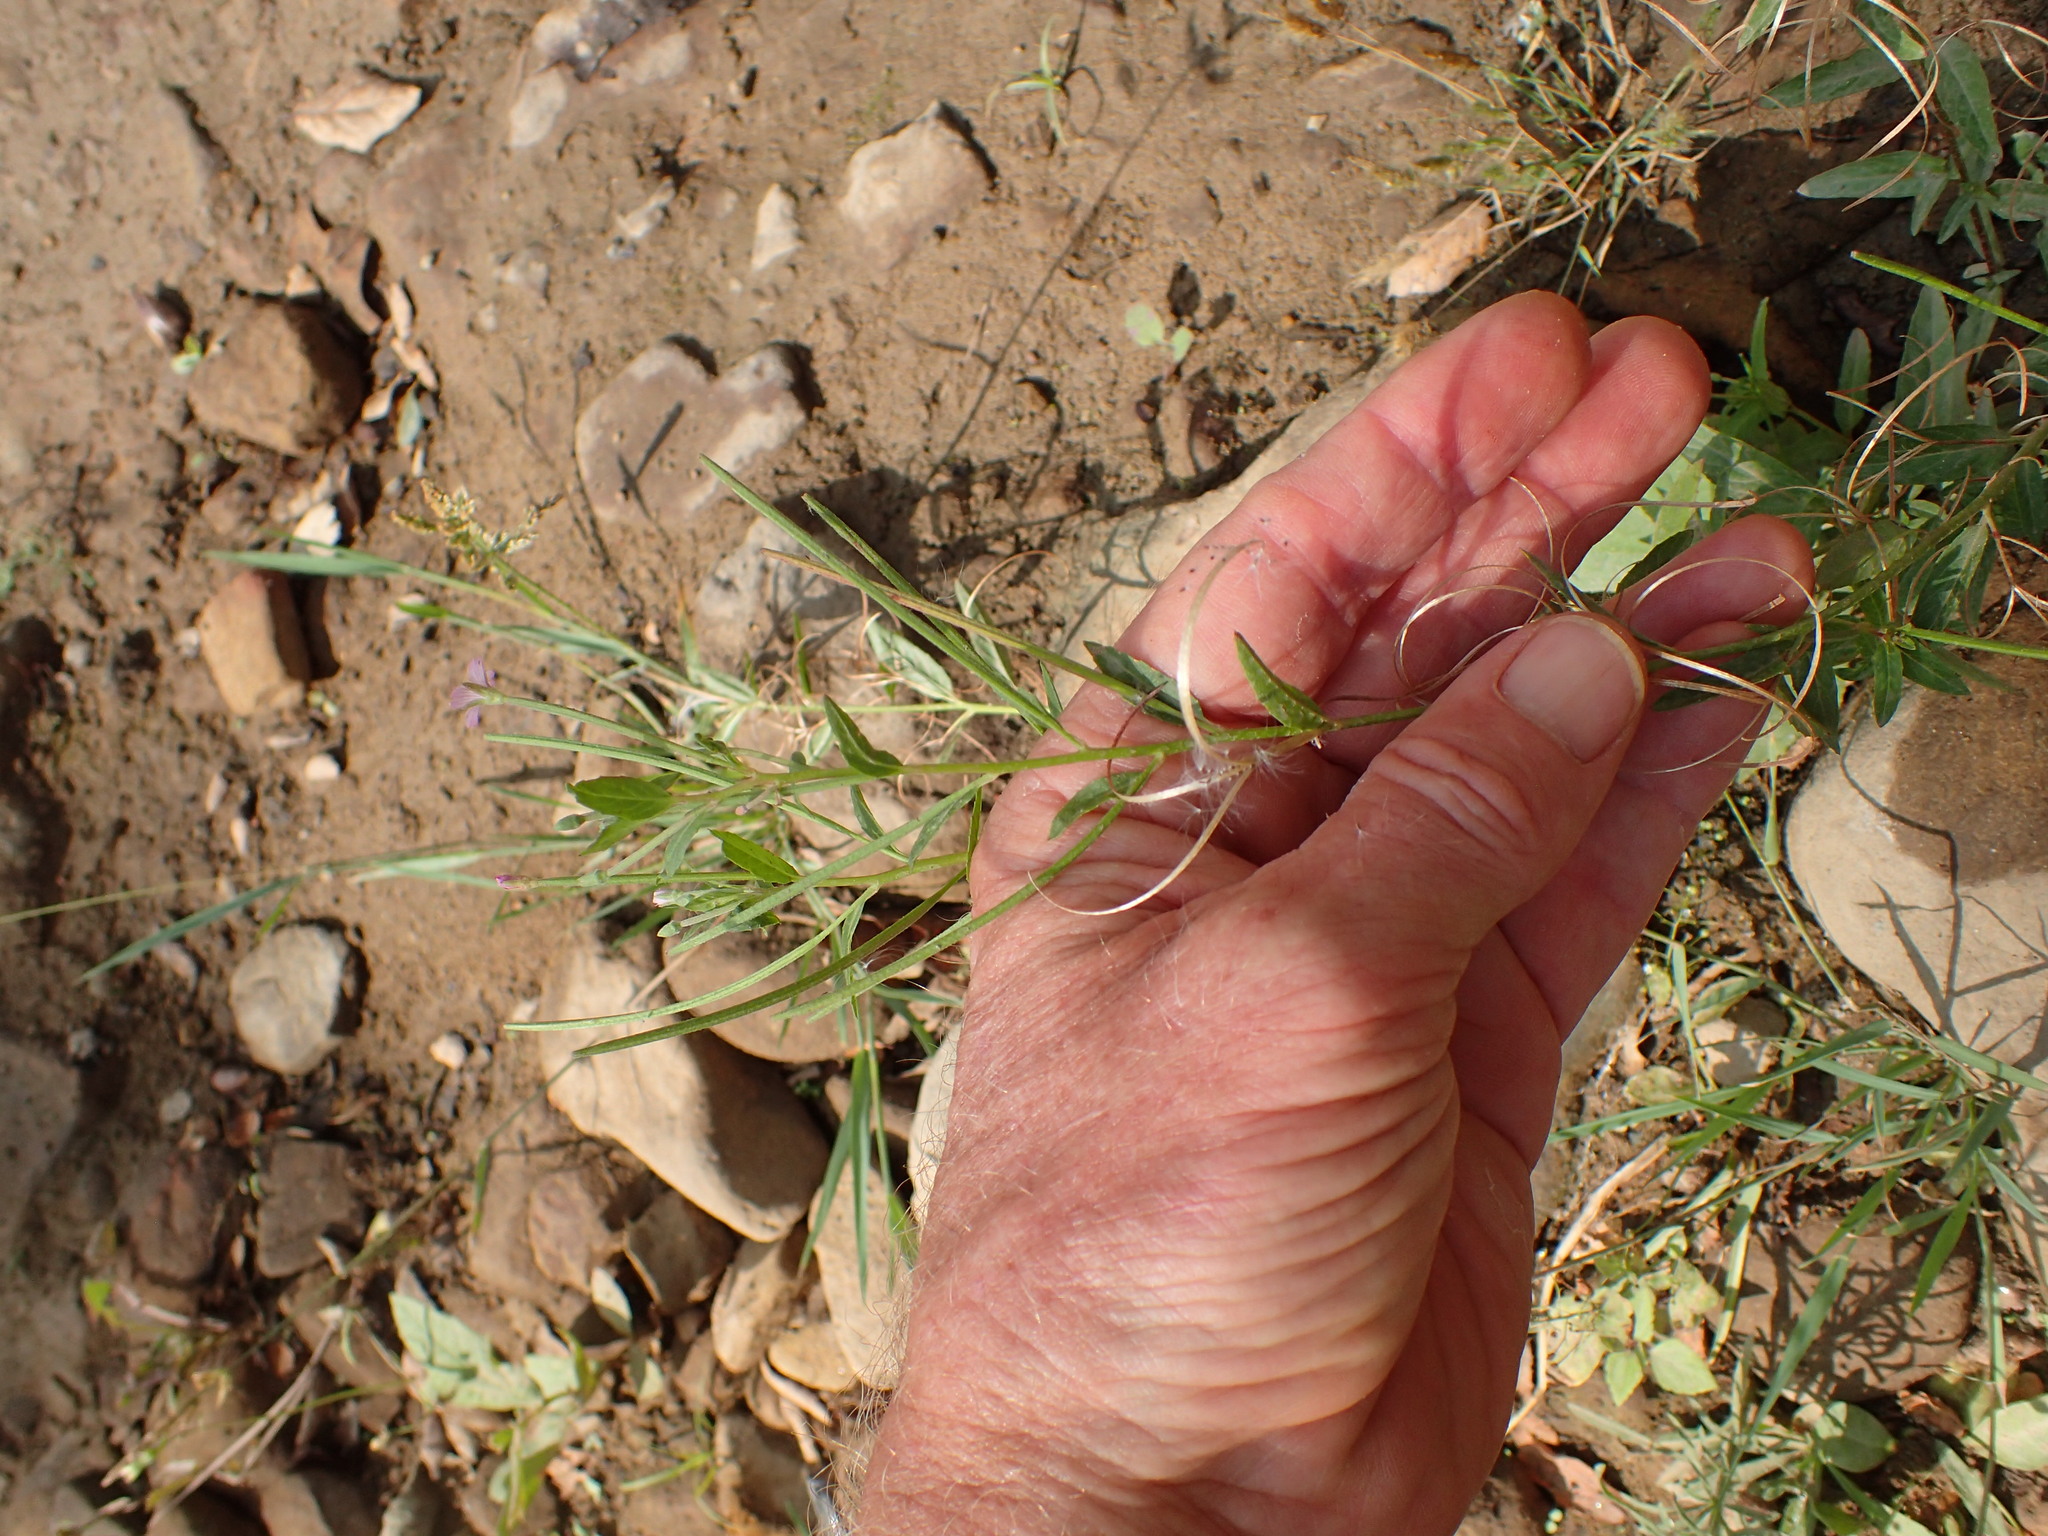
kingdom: Plantae
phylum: Tracheophyta
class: Magnoliopsida
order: Myrtales
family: Onagraceae
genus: Epilobium
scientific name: Epilobium ciliatum
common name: American willowherb
